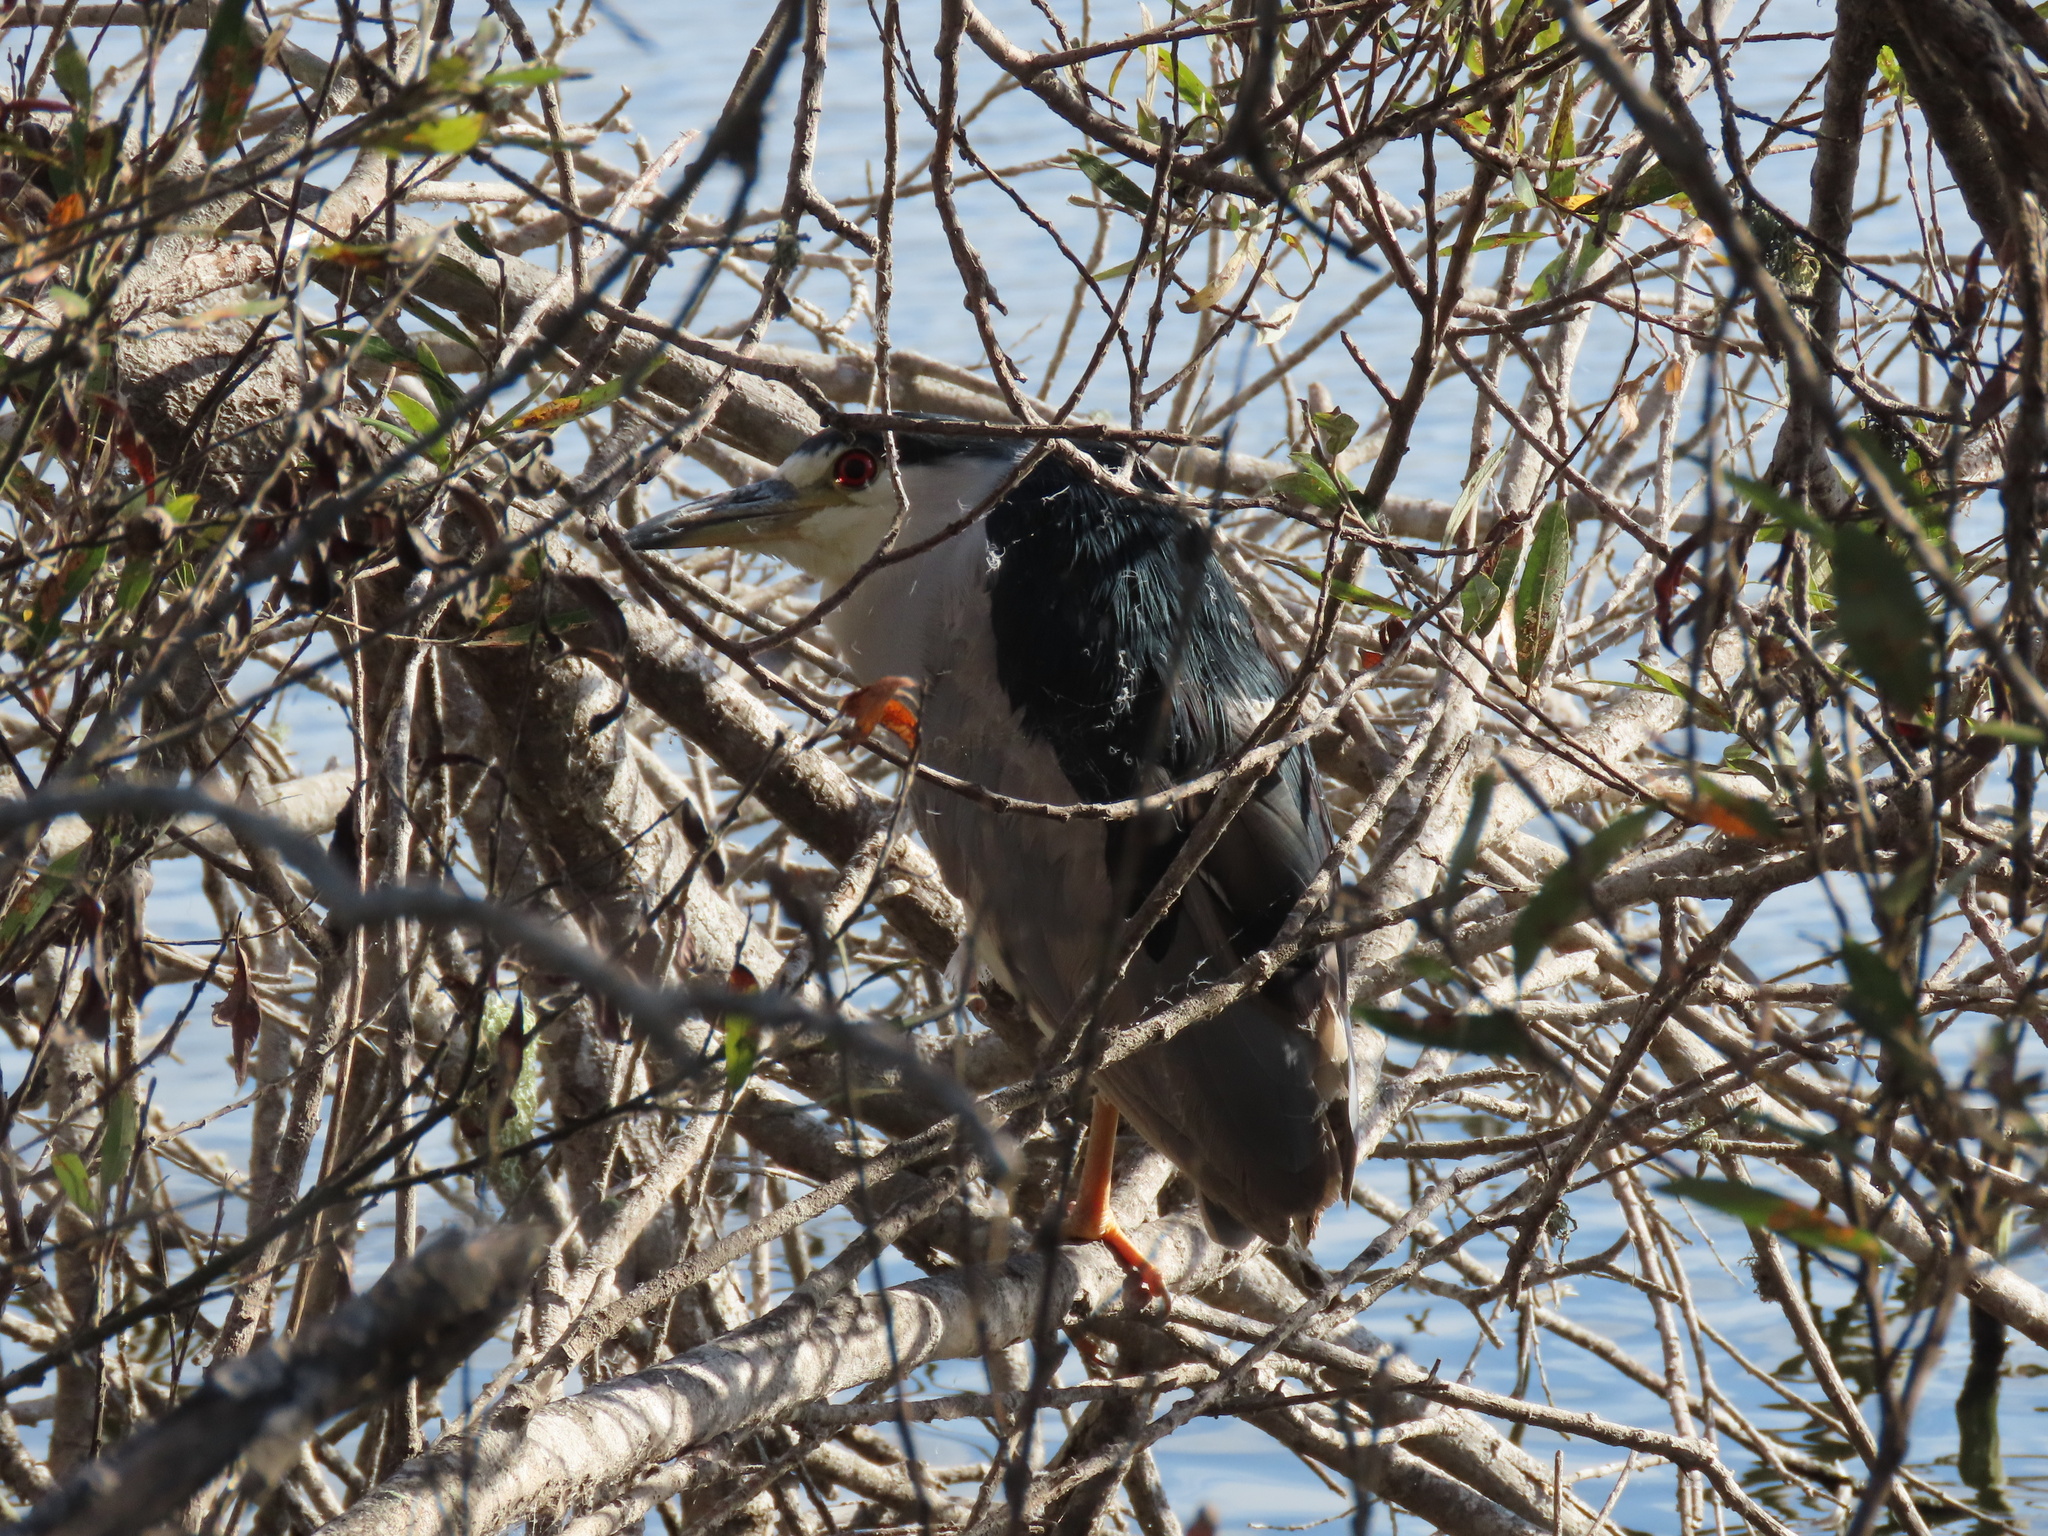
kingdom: Animalia
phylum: Chordata
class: Aves
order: Pelecaniformes
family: Ardeidae
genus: Nycticorax
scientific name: Nycticorax nycticorax
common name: Black-crowned night heron
